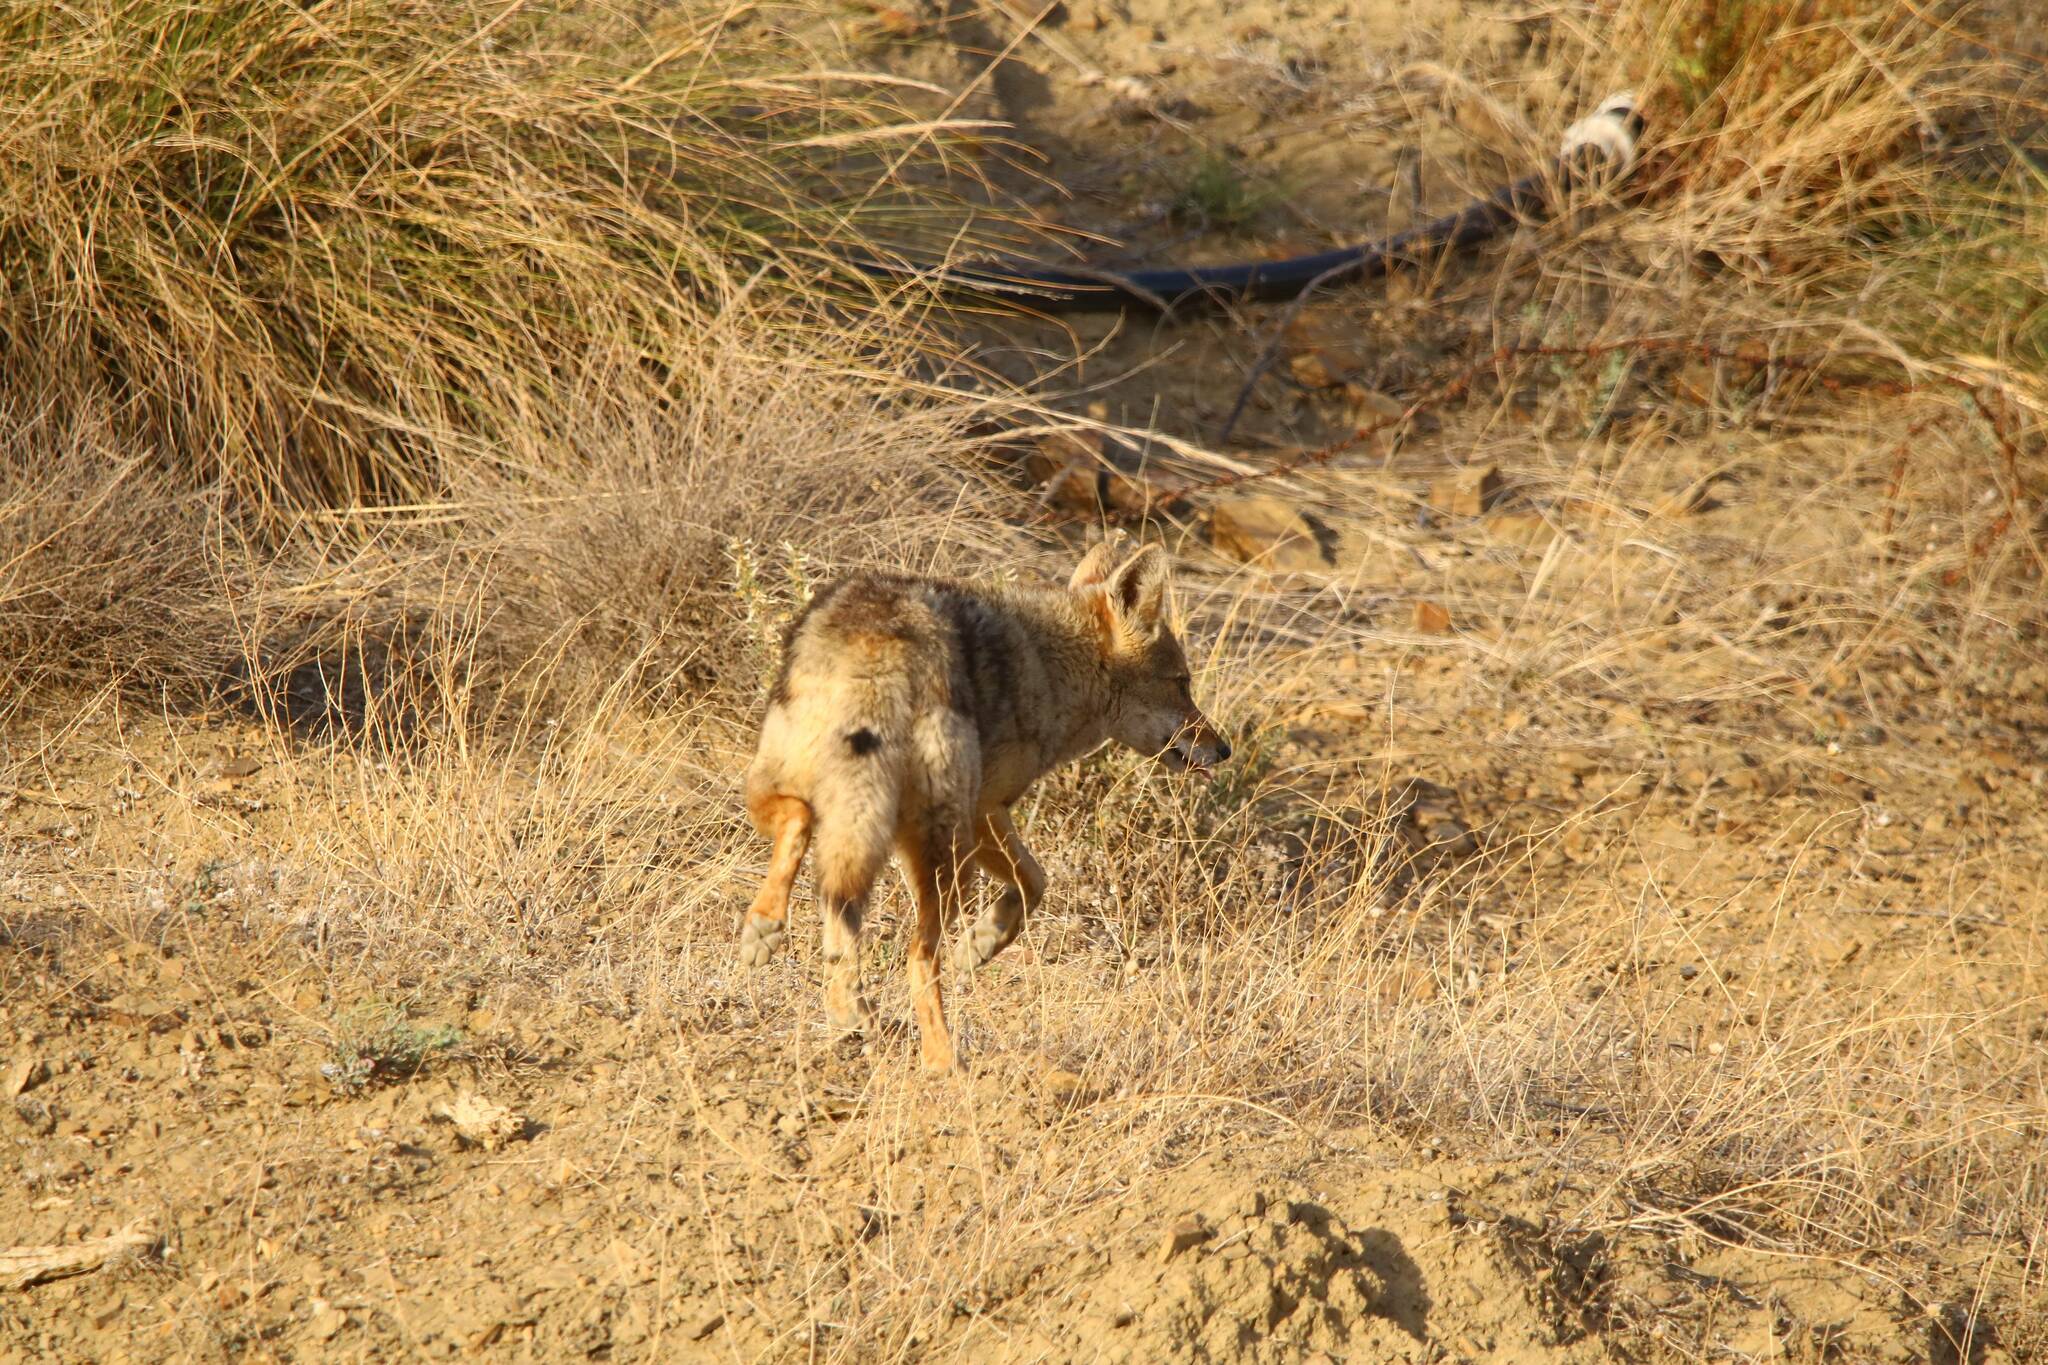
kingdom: Animalia
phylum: Chordata
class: Mammalia
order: Carnivora
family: Canidae
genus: Canis
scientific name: Canis lupaster
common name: African golden wolf
